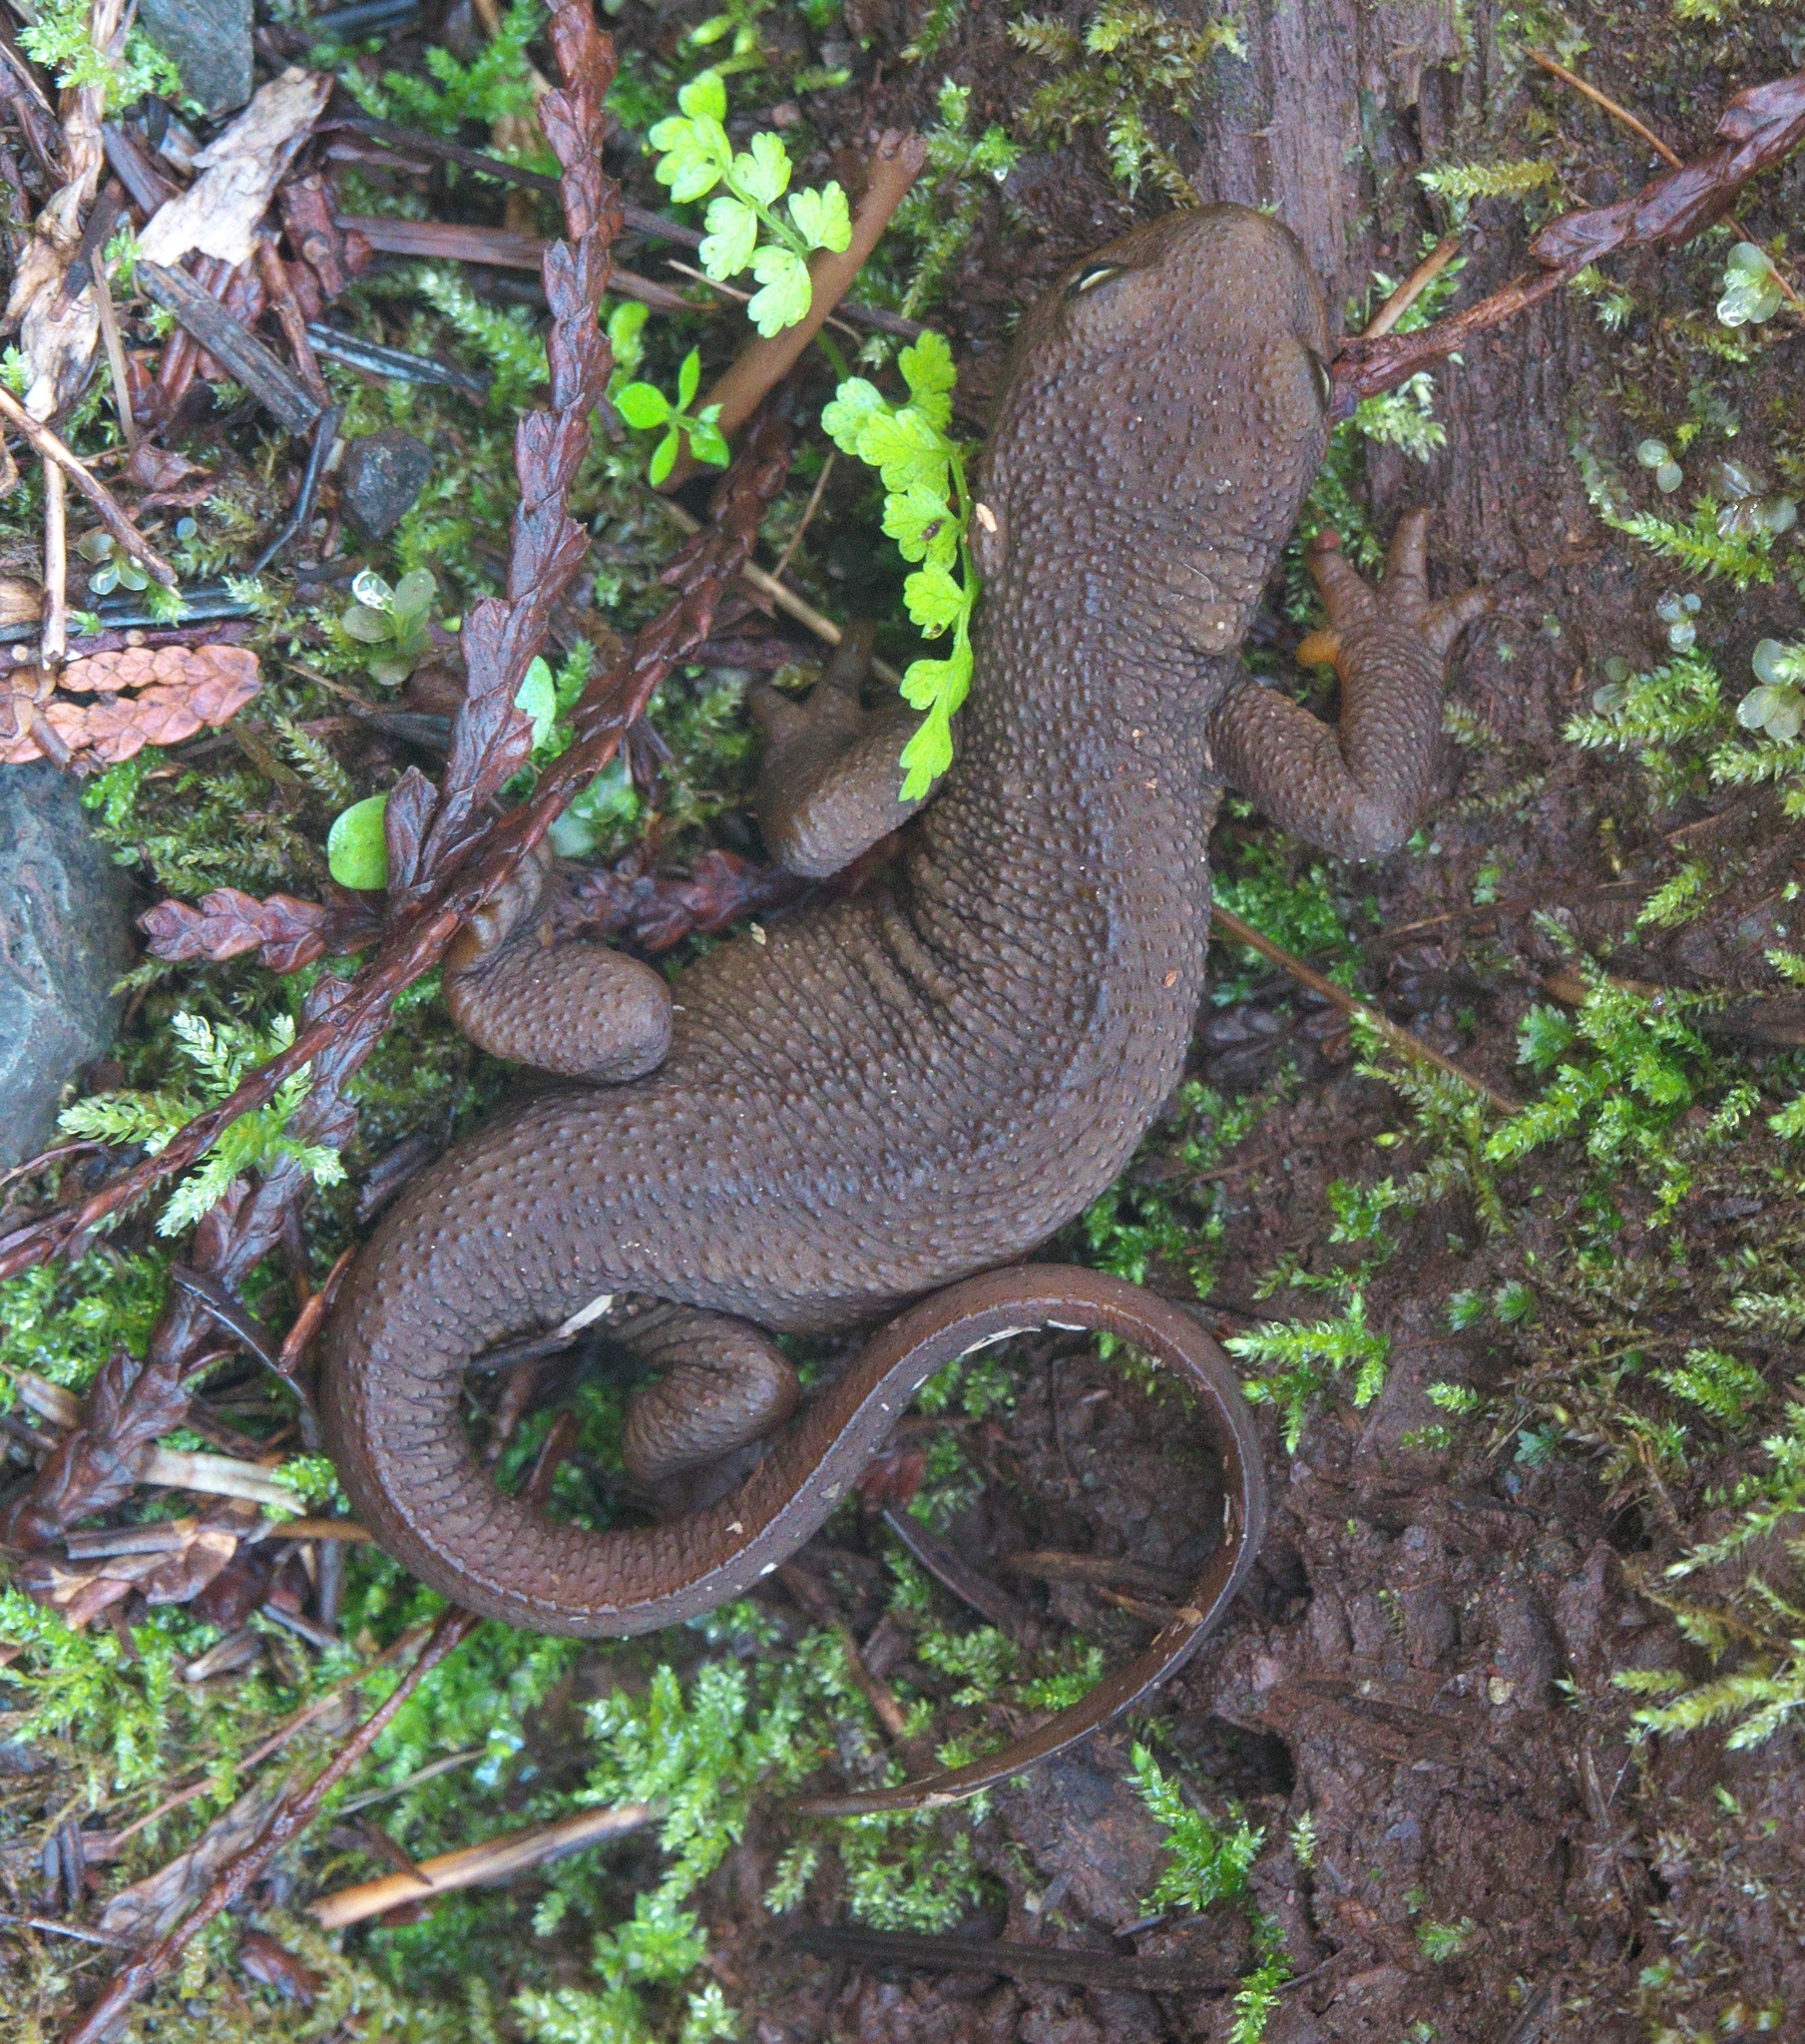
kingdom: Animalia
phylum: Chordata
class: Amphibia
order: Caudata
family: Salamandridae
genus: Taricha
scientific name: Taricha granulosa
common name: Roughskin newt
